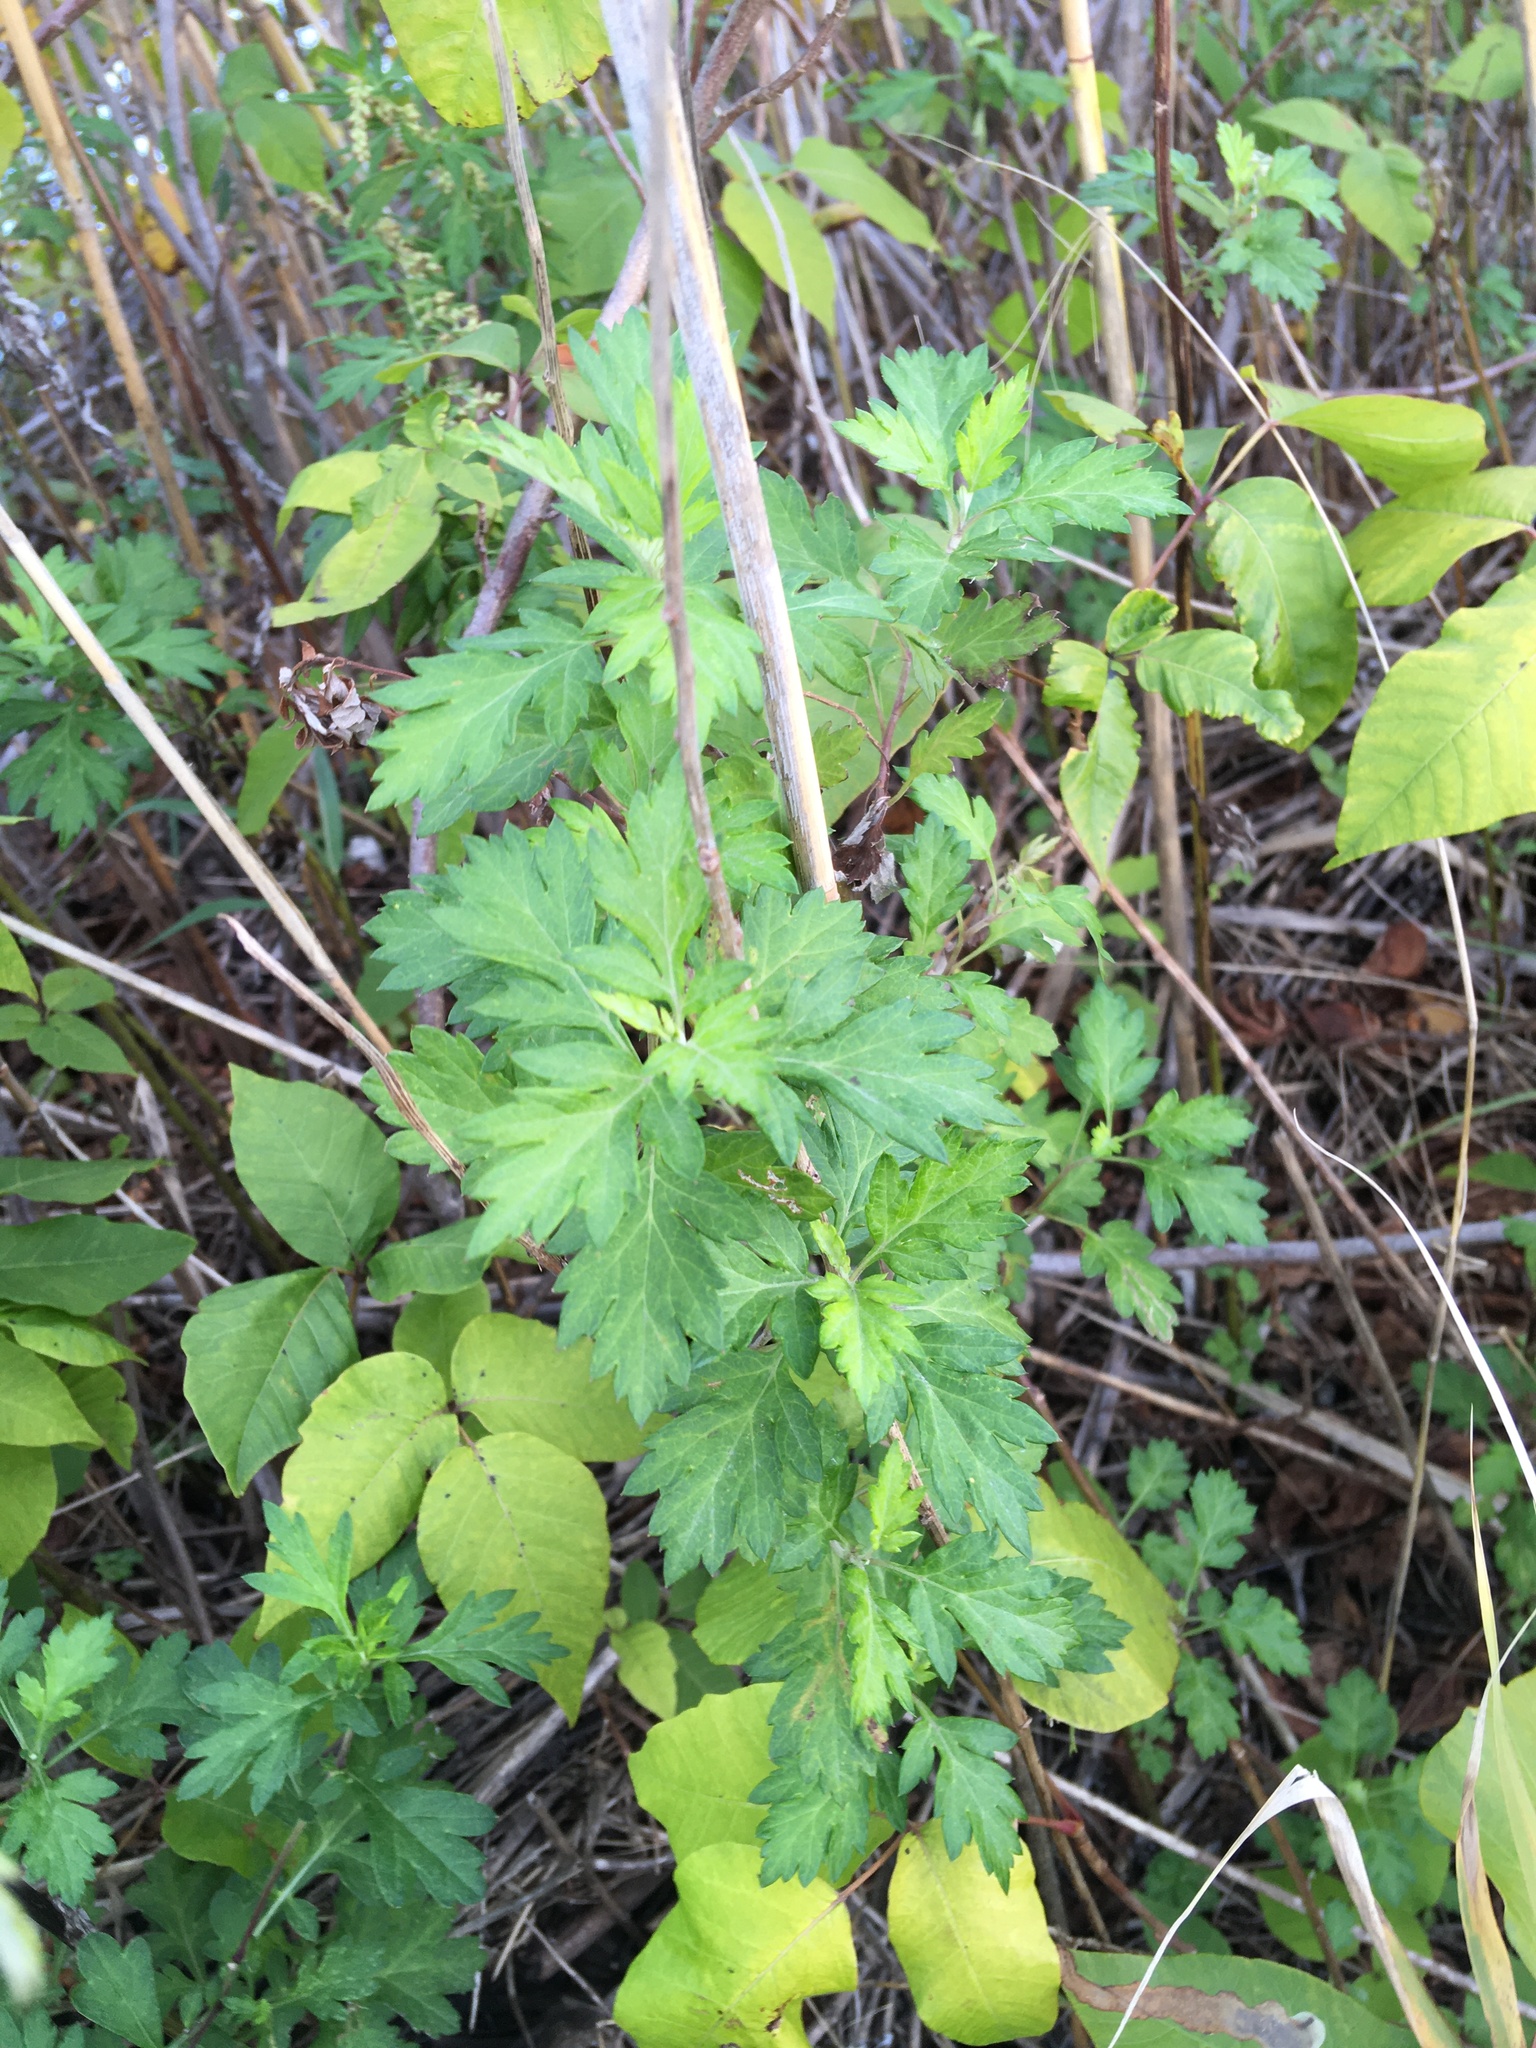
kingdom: Plantae
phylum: Tracheophyta
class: Magnoliopsida
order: Asterales
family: Asteraceae
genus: Artemisia
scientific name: Artemisia vulgaris
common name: Mugwort
